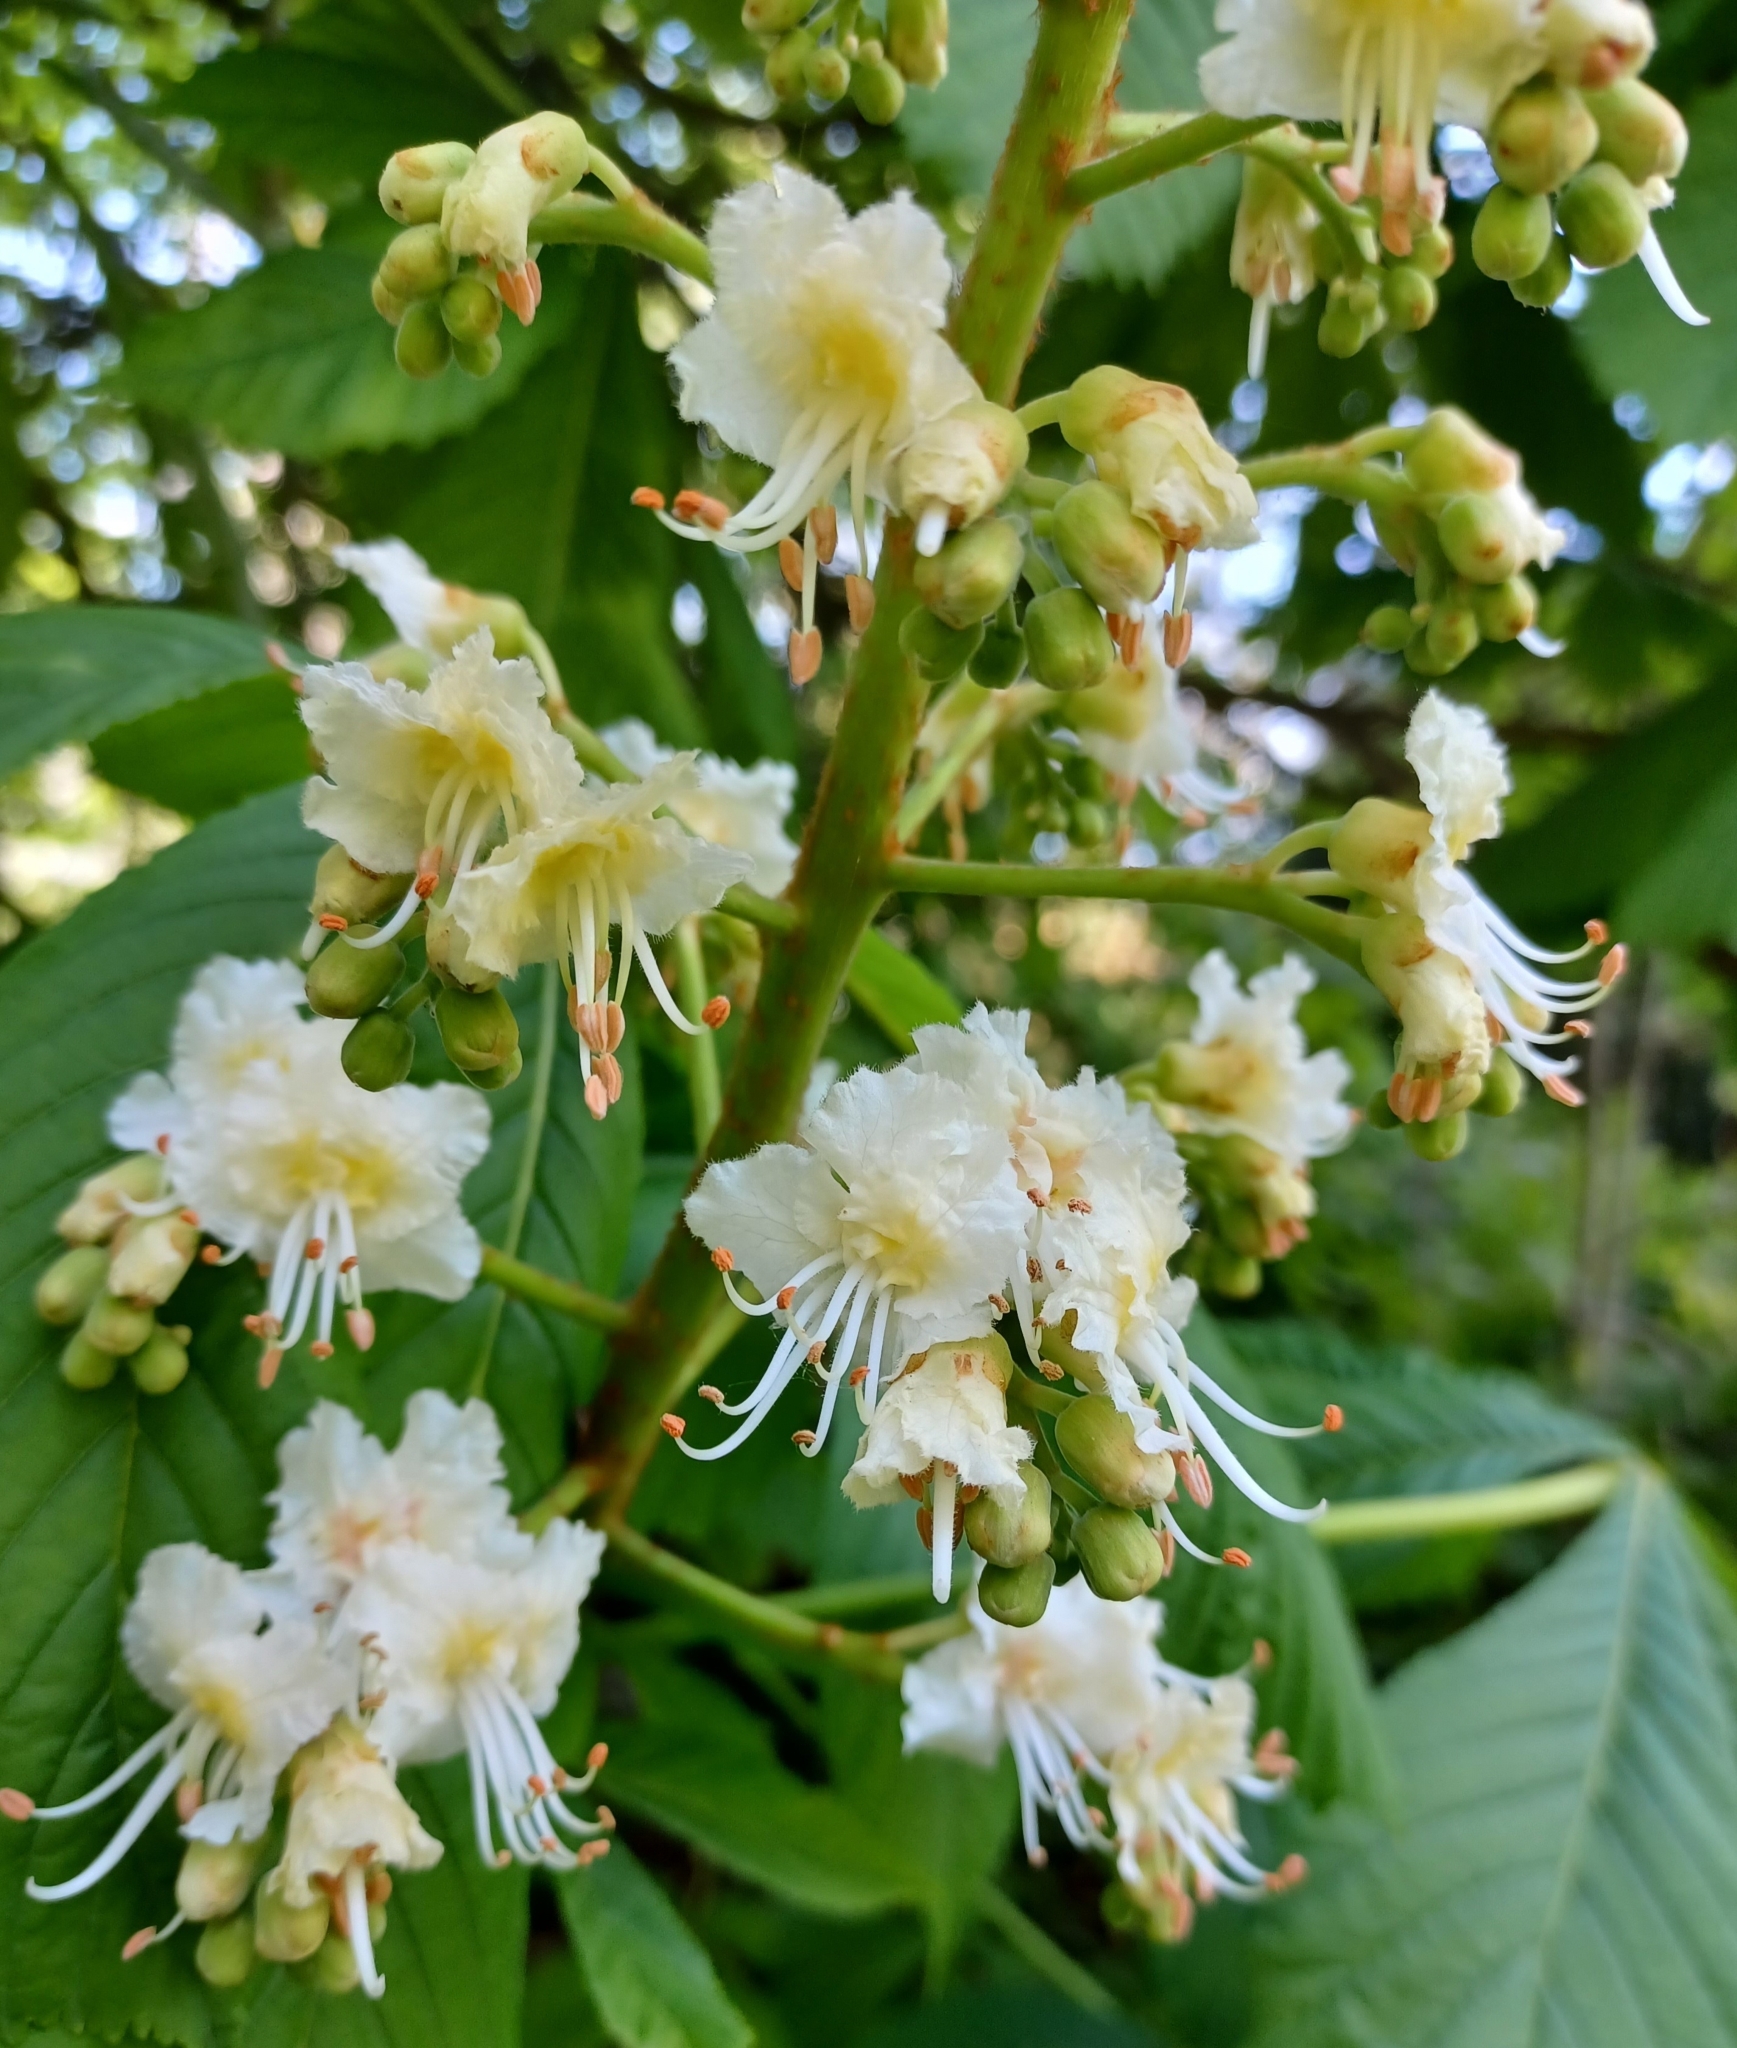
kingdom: Plantae
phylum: Tracheophyta
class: Magnoliopsida
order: Sapindales
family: Sapindaceae
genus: Aesculus
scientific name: Aesculus hippocastanum
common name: Horse-chestnut
